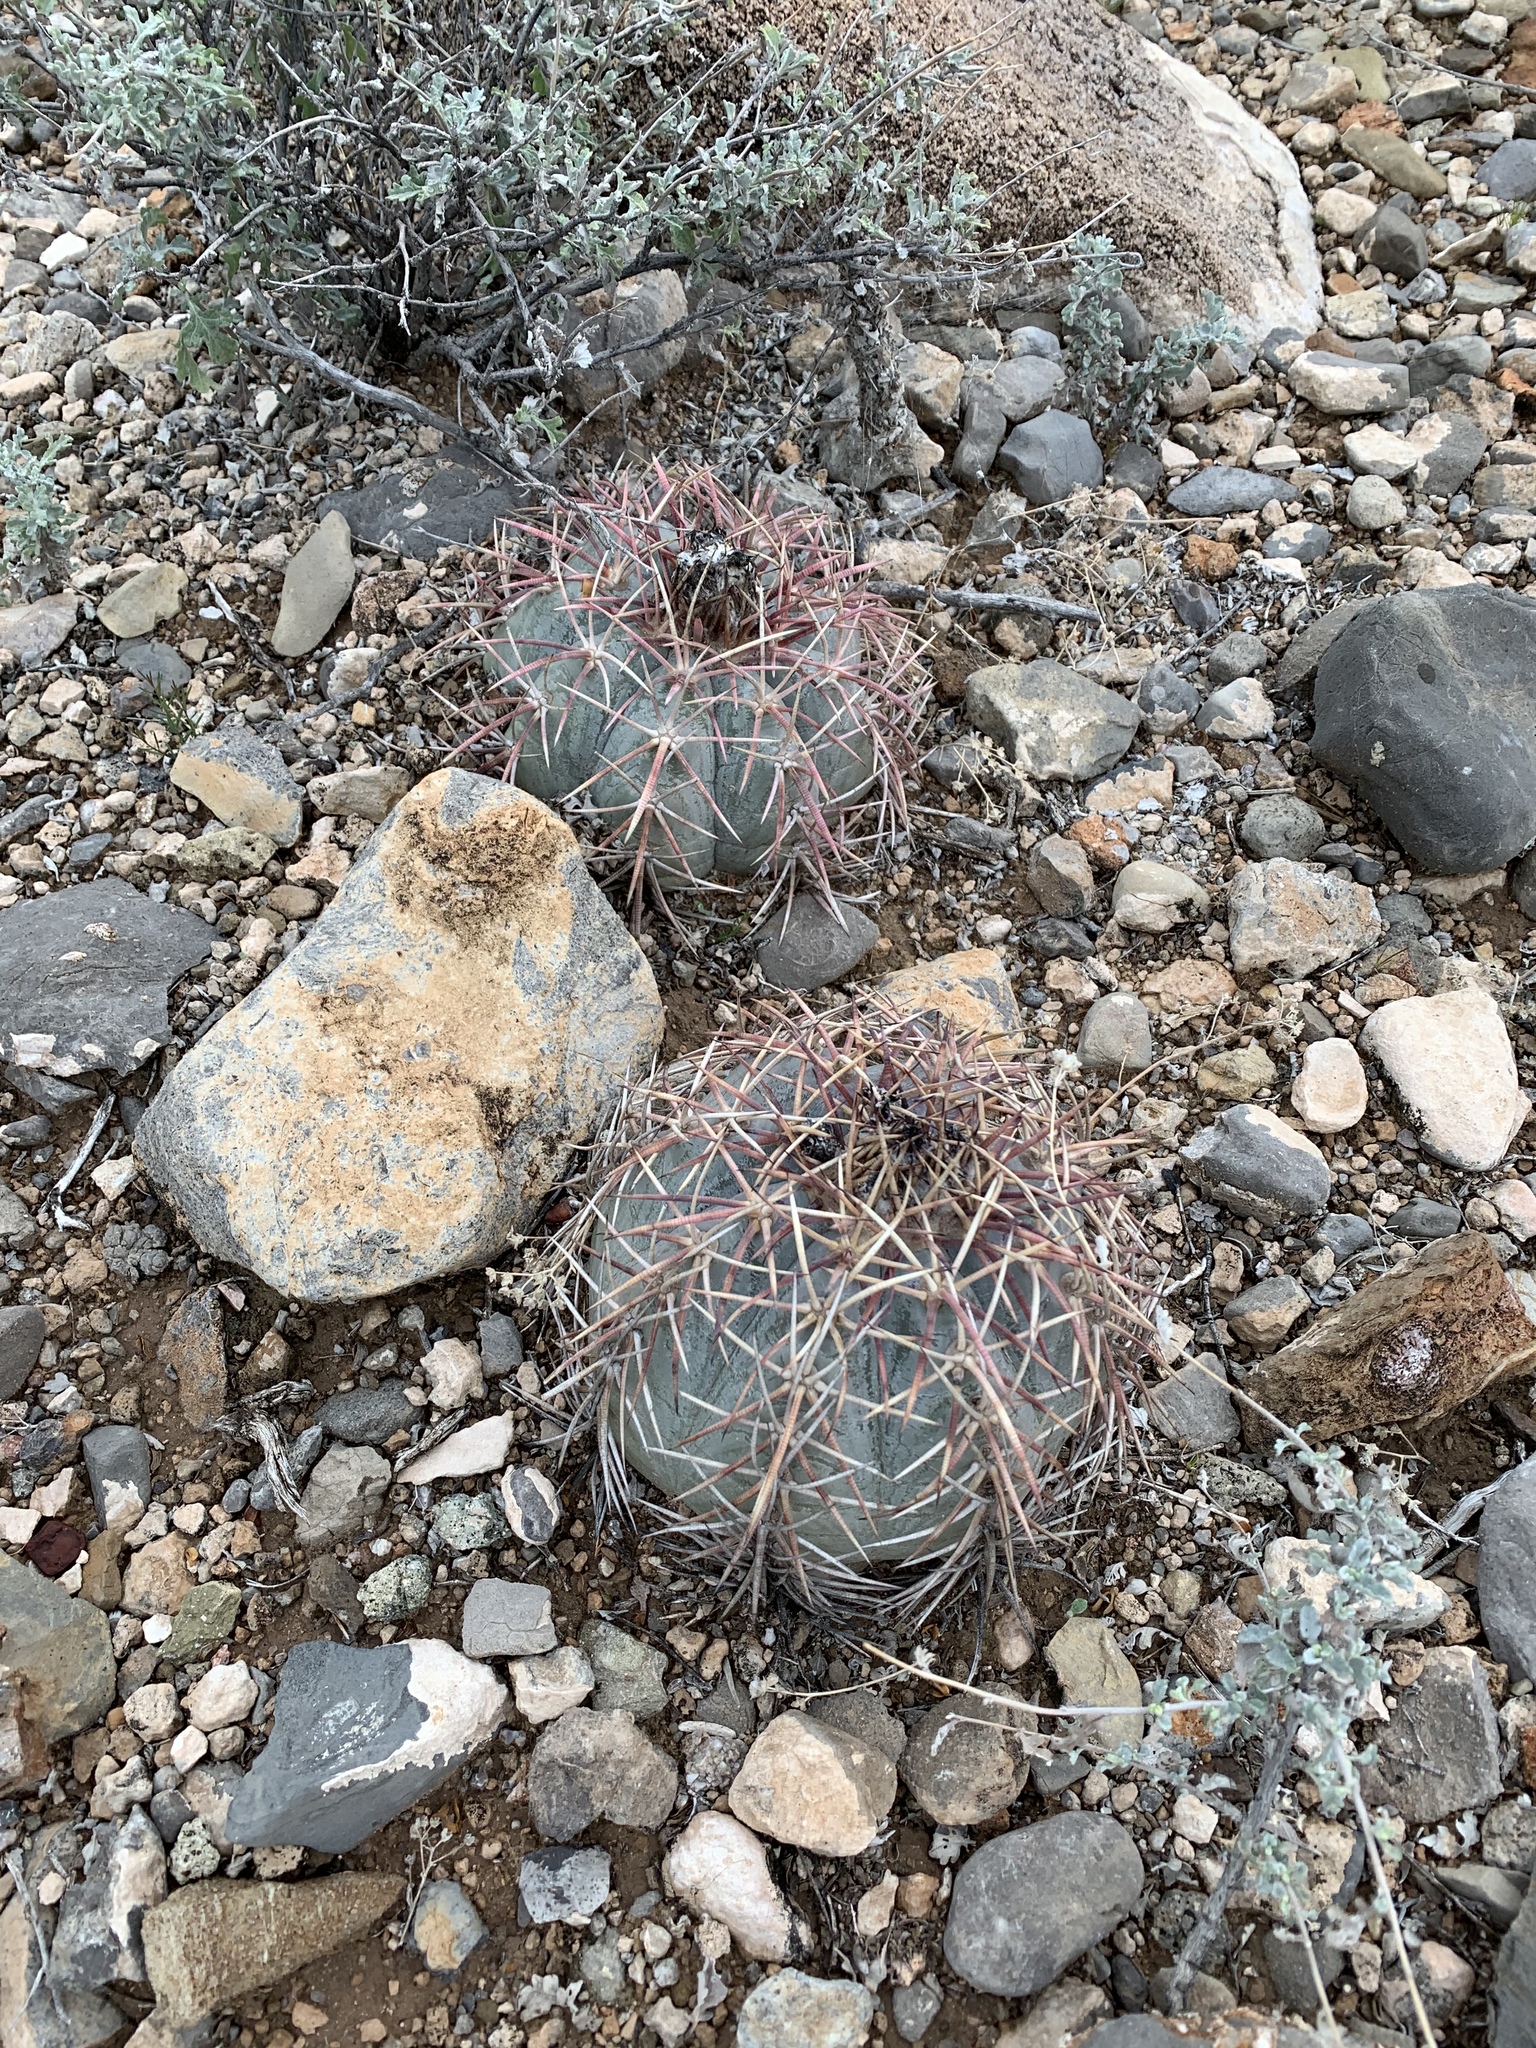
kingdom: Plantae
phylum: Tracheophyta
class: Magnoliopsida
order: Caryophyllales
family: Cactaceae
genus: Echinocactus
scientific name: Echinocactus horizonthalonius
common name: Devilshead
